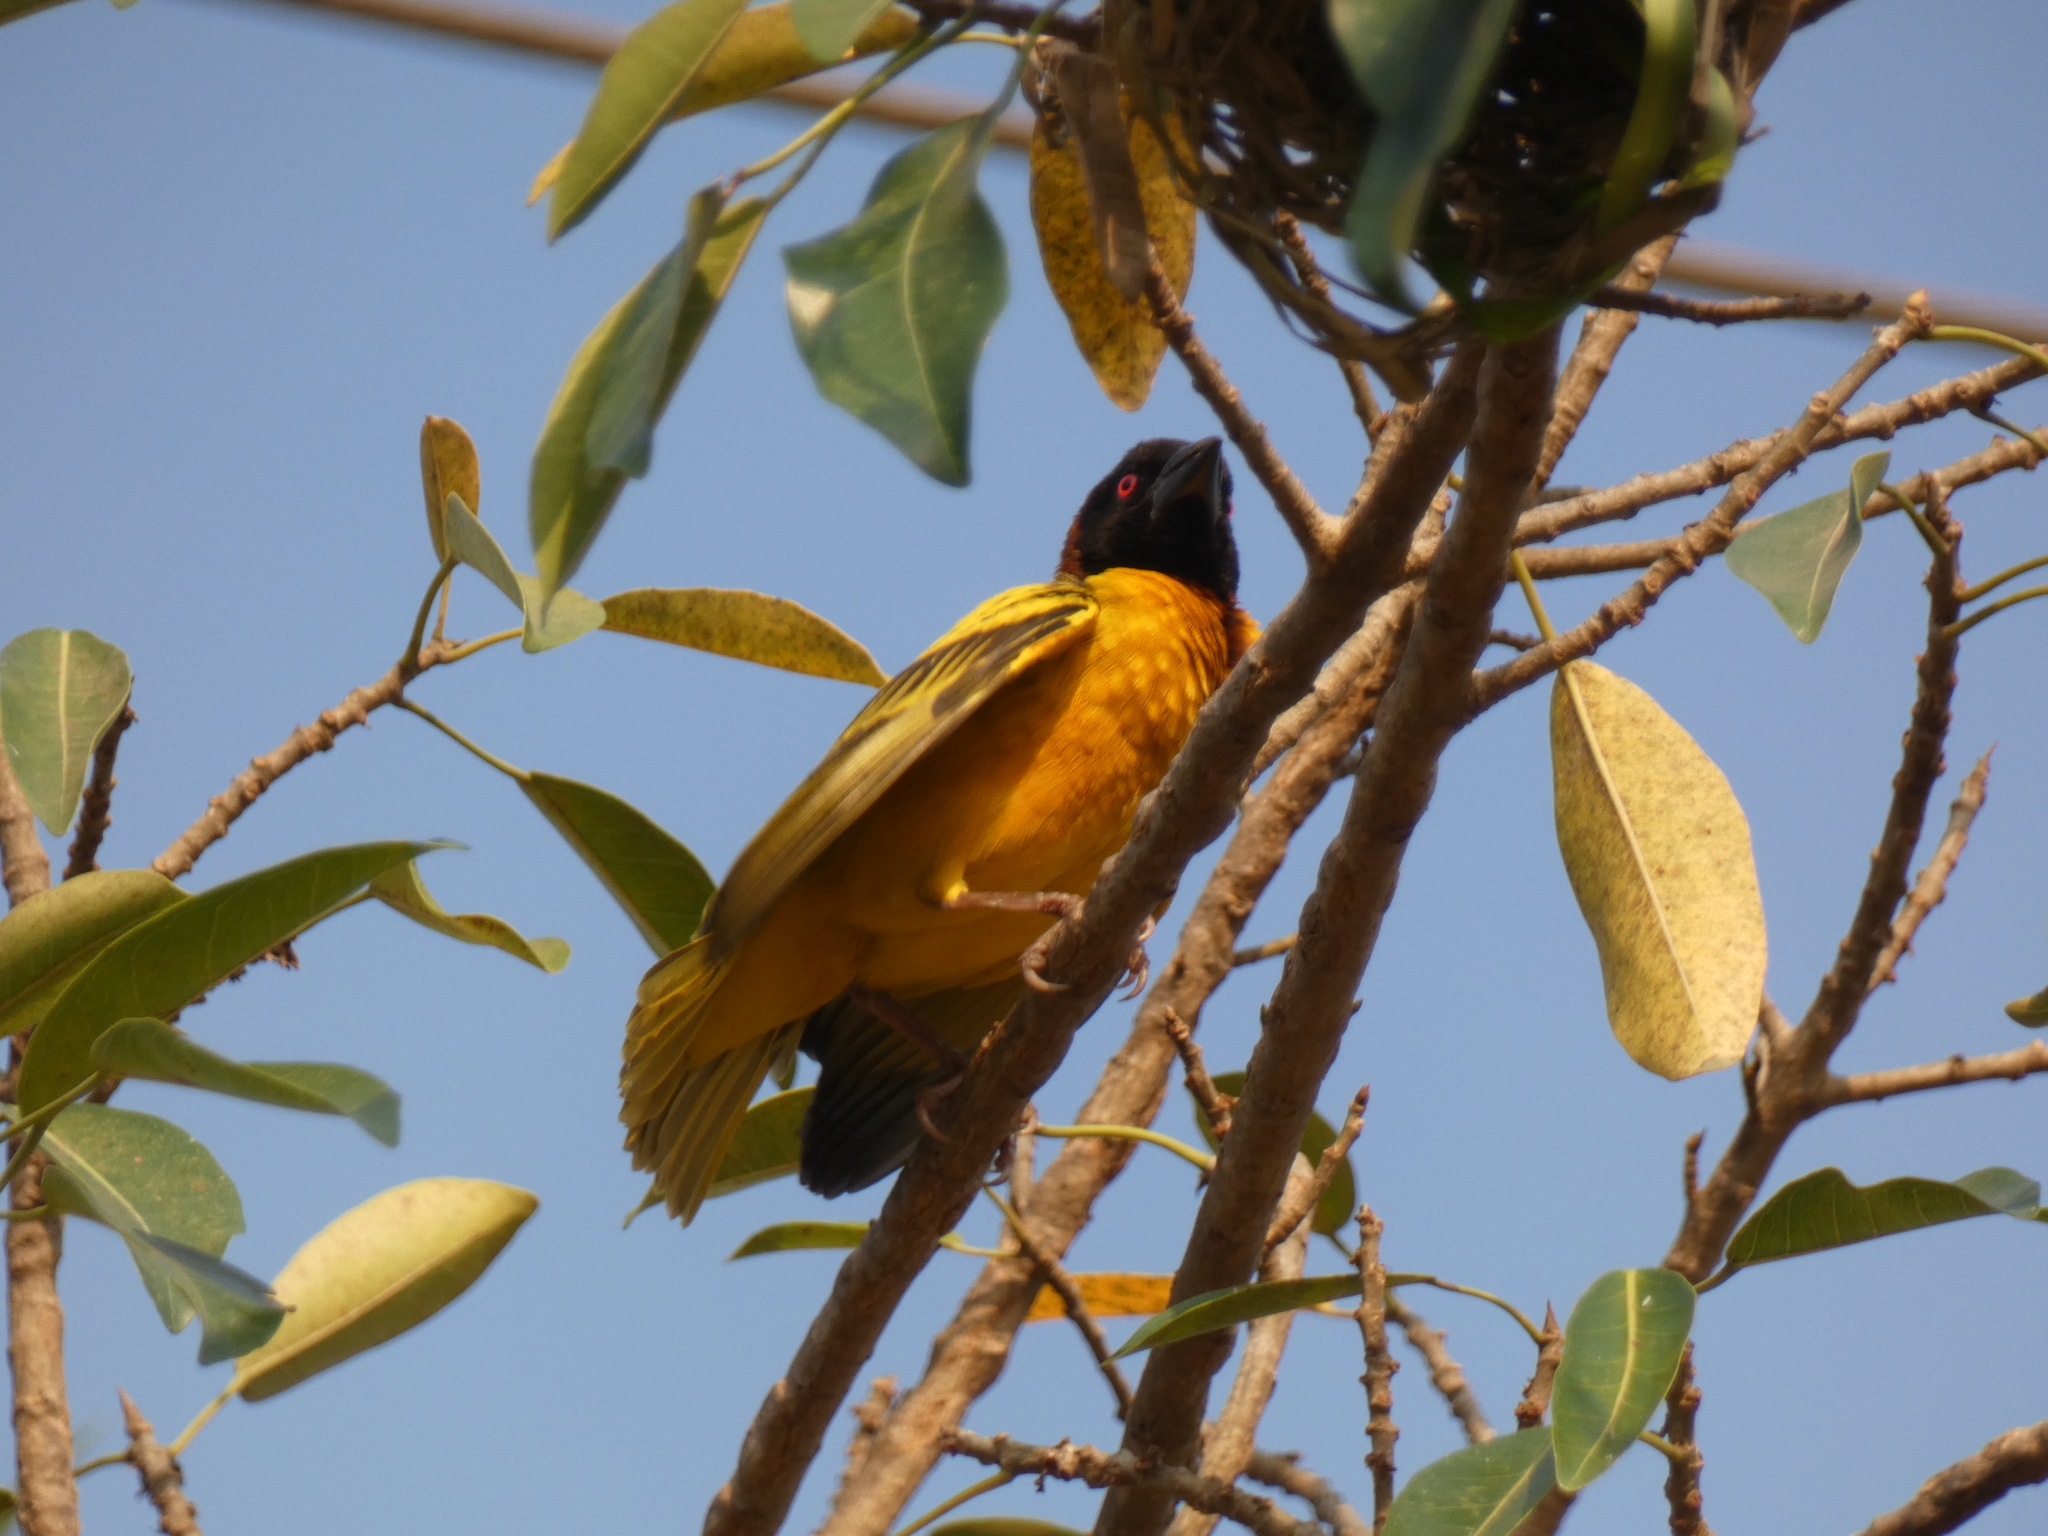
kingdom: Animalia
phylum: Chordata
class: Aves
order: Passeriformes
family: Ploceidae
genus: Ploceus
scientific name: Ploceus cucullatus
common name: Village weaver
